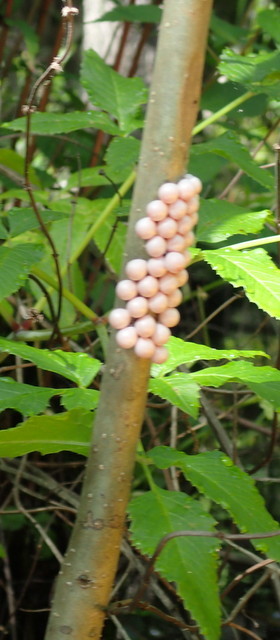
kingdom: Animalia
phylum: Mollusca
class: Gastropoda
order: Architaenioglossa
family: Ampullariidae
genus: Pomacea
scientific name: Pomacea paludosa
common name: Florida applesnail
